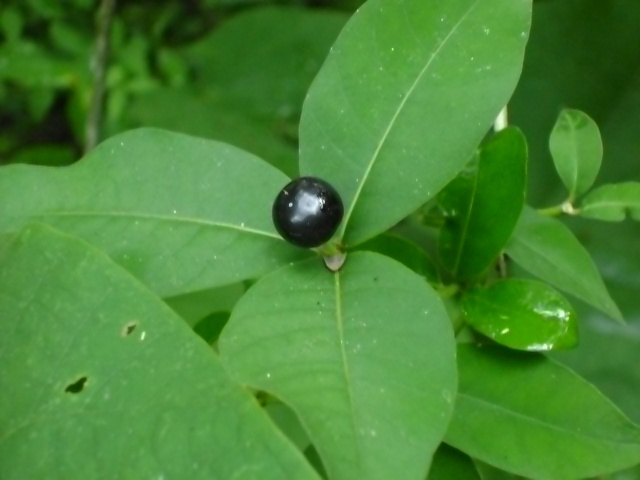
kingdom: Plantae
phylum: Tracheophyta
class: Magnoliopsida
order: Gentianales
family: Apocynaceae
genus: Rauvolfia
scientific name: Rauvolfia tetraphylla
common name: Four-leaf devil-pepper
